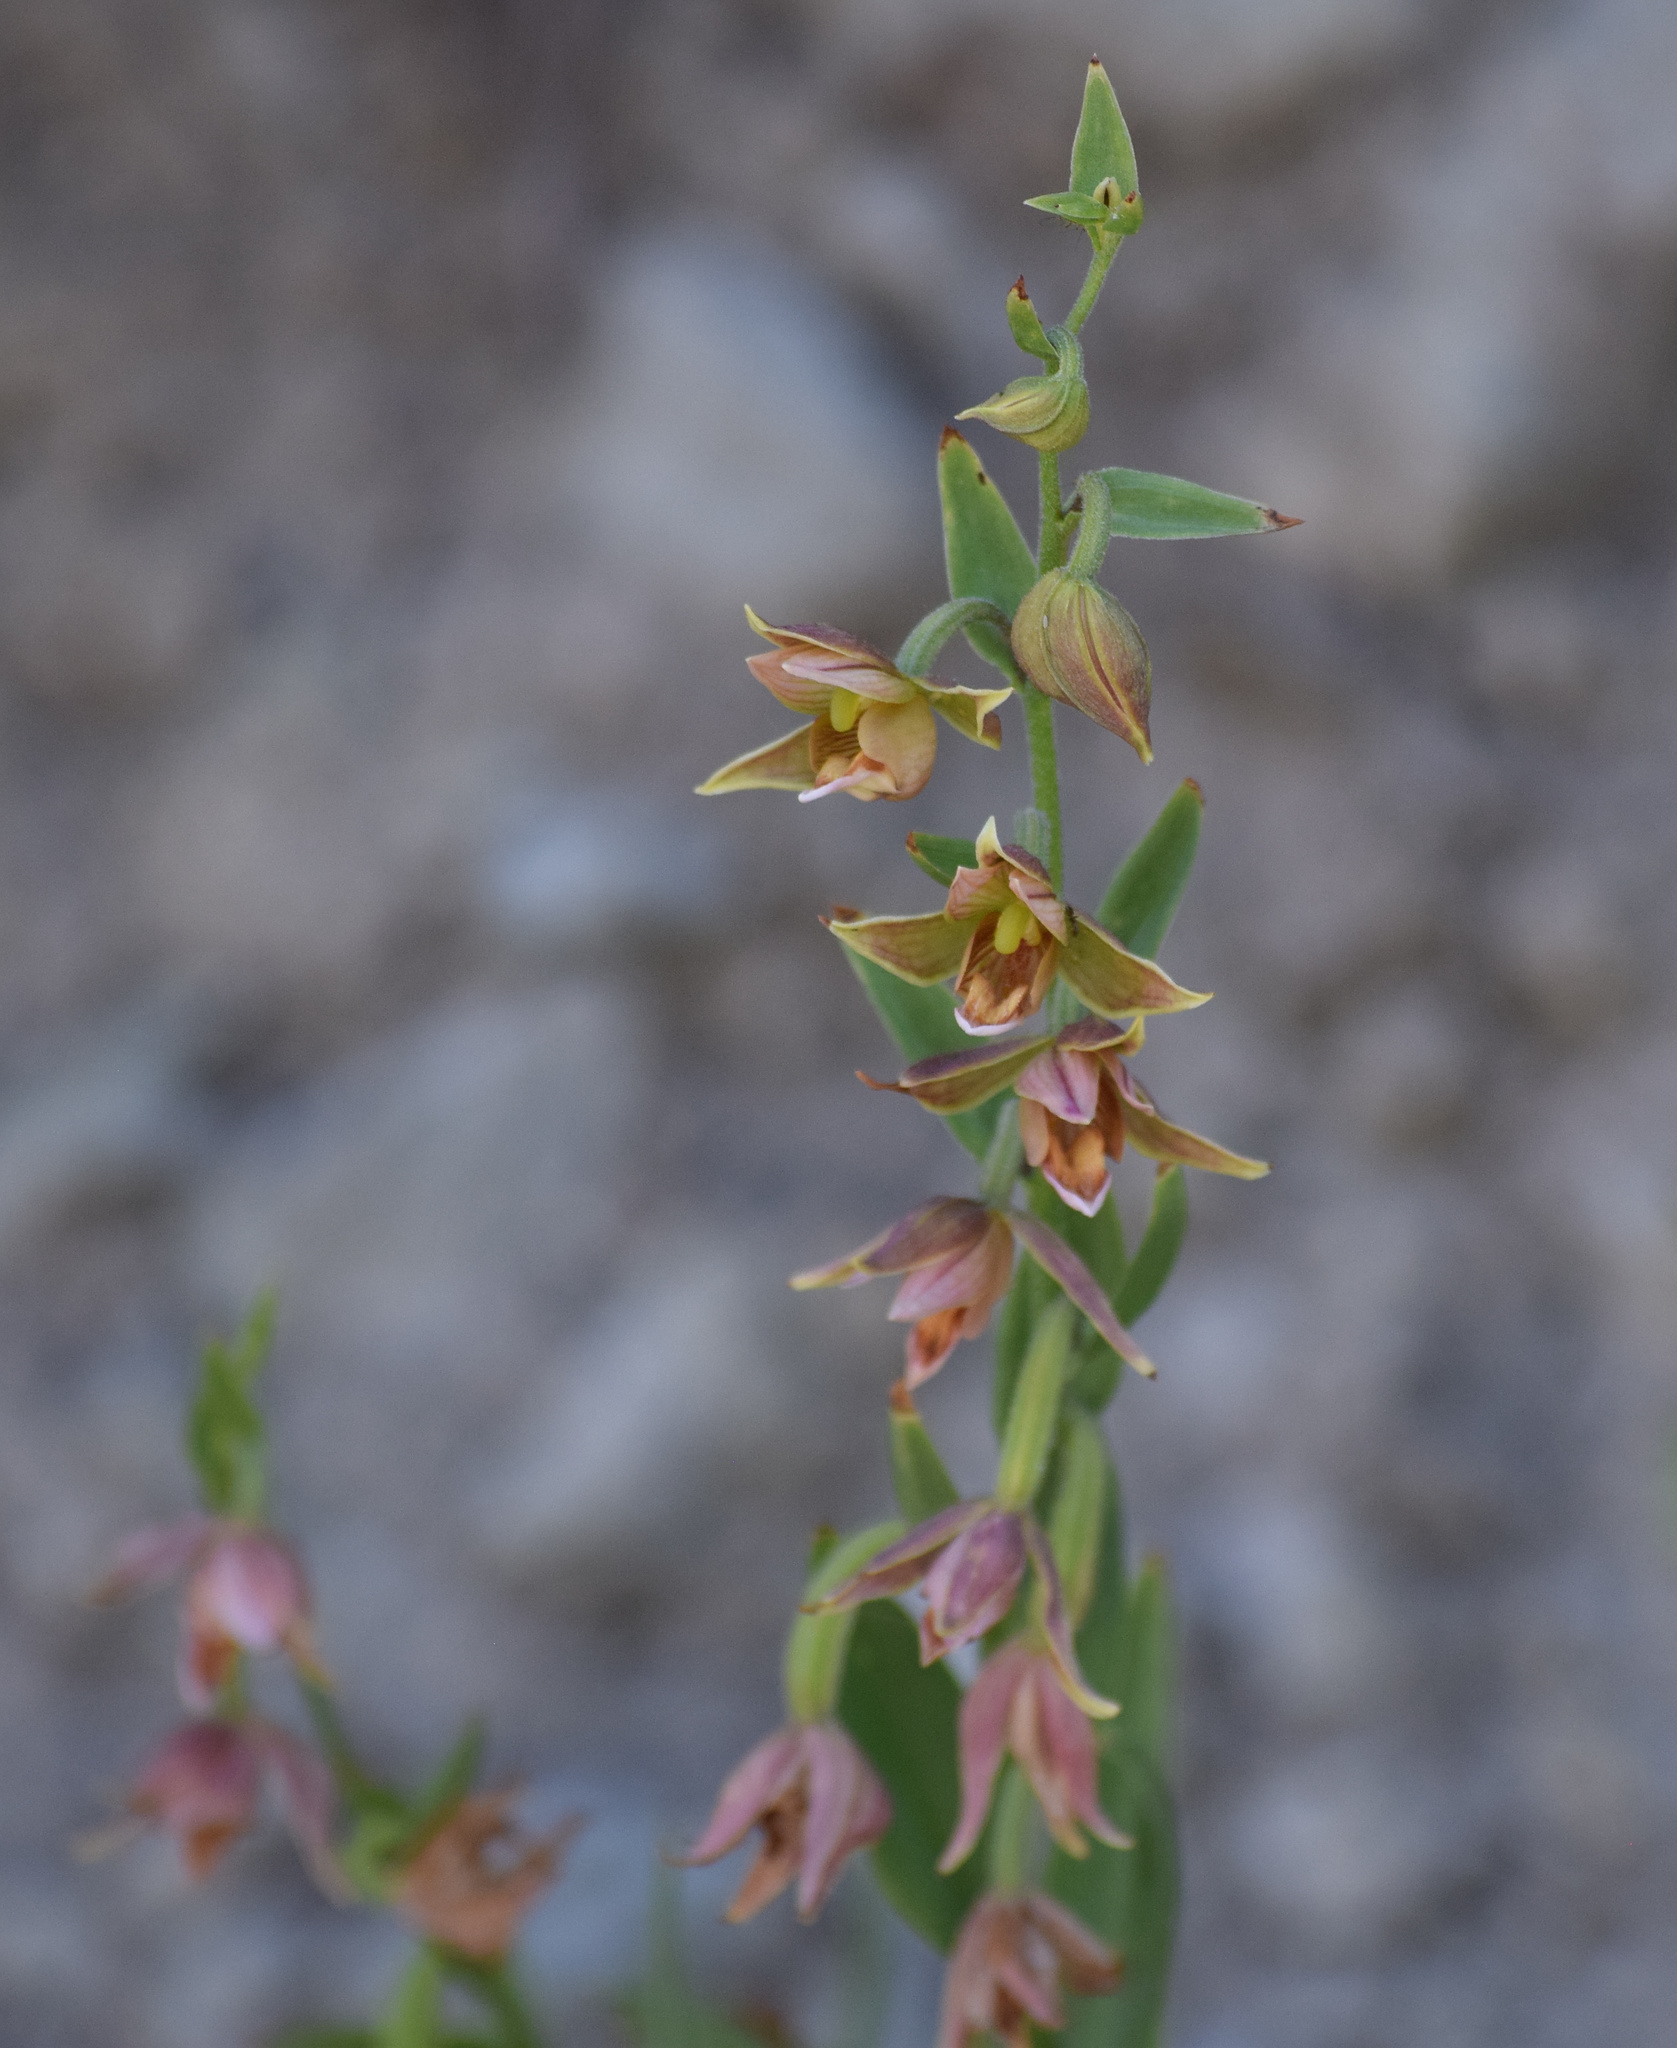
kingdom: Plantae
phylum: Tracheophyta
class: Liliopsida
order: Asparagales
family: Orchidaceae
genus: Epipactis
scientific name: Epipactis gigantea
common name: Chatterbox
